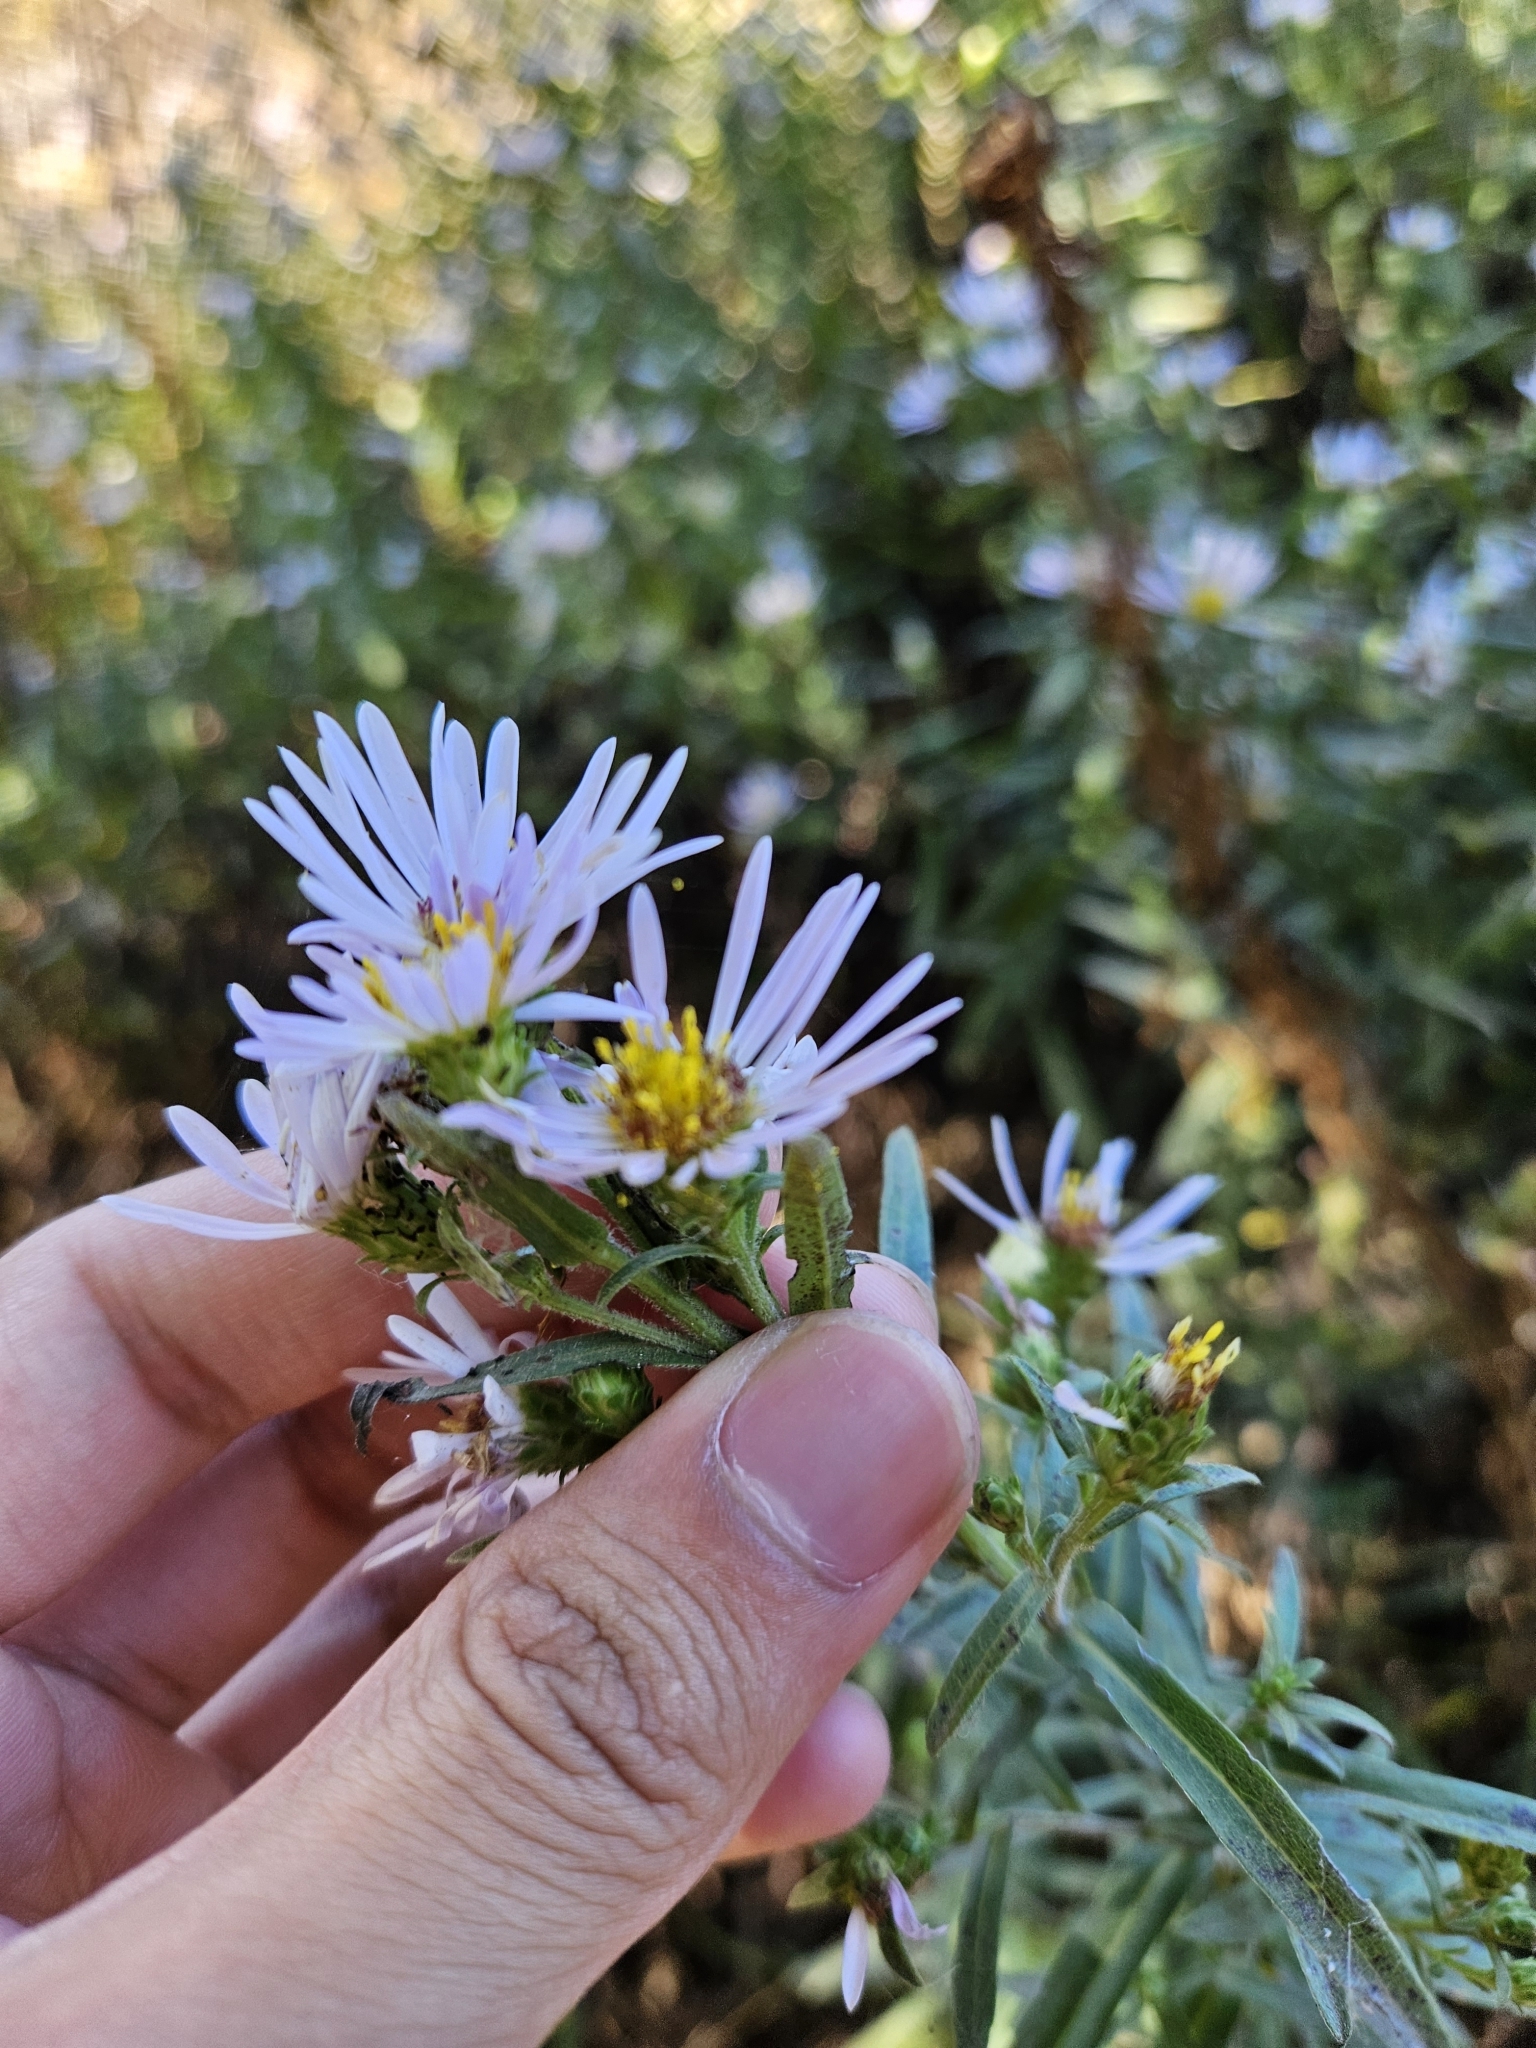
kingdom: Plantae
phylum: Tracheophyta
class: Magnoliopsida
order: Asterales
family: Asteraceae
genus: Symphyotrichum
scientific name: Symphyotrichum chilense
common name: Pacific aster
